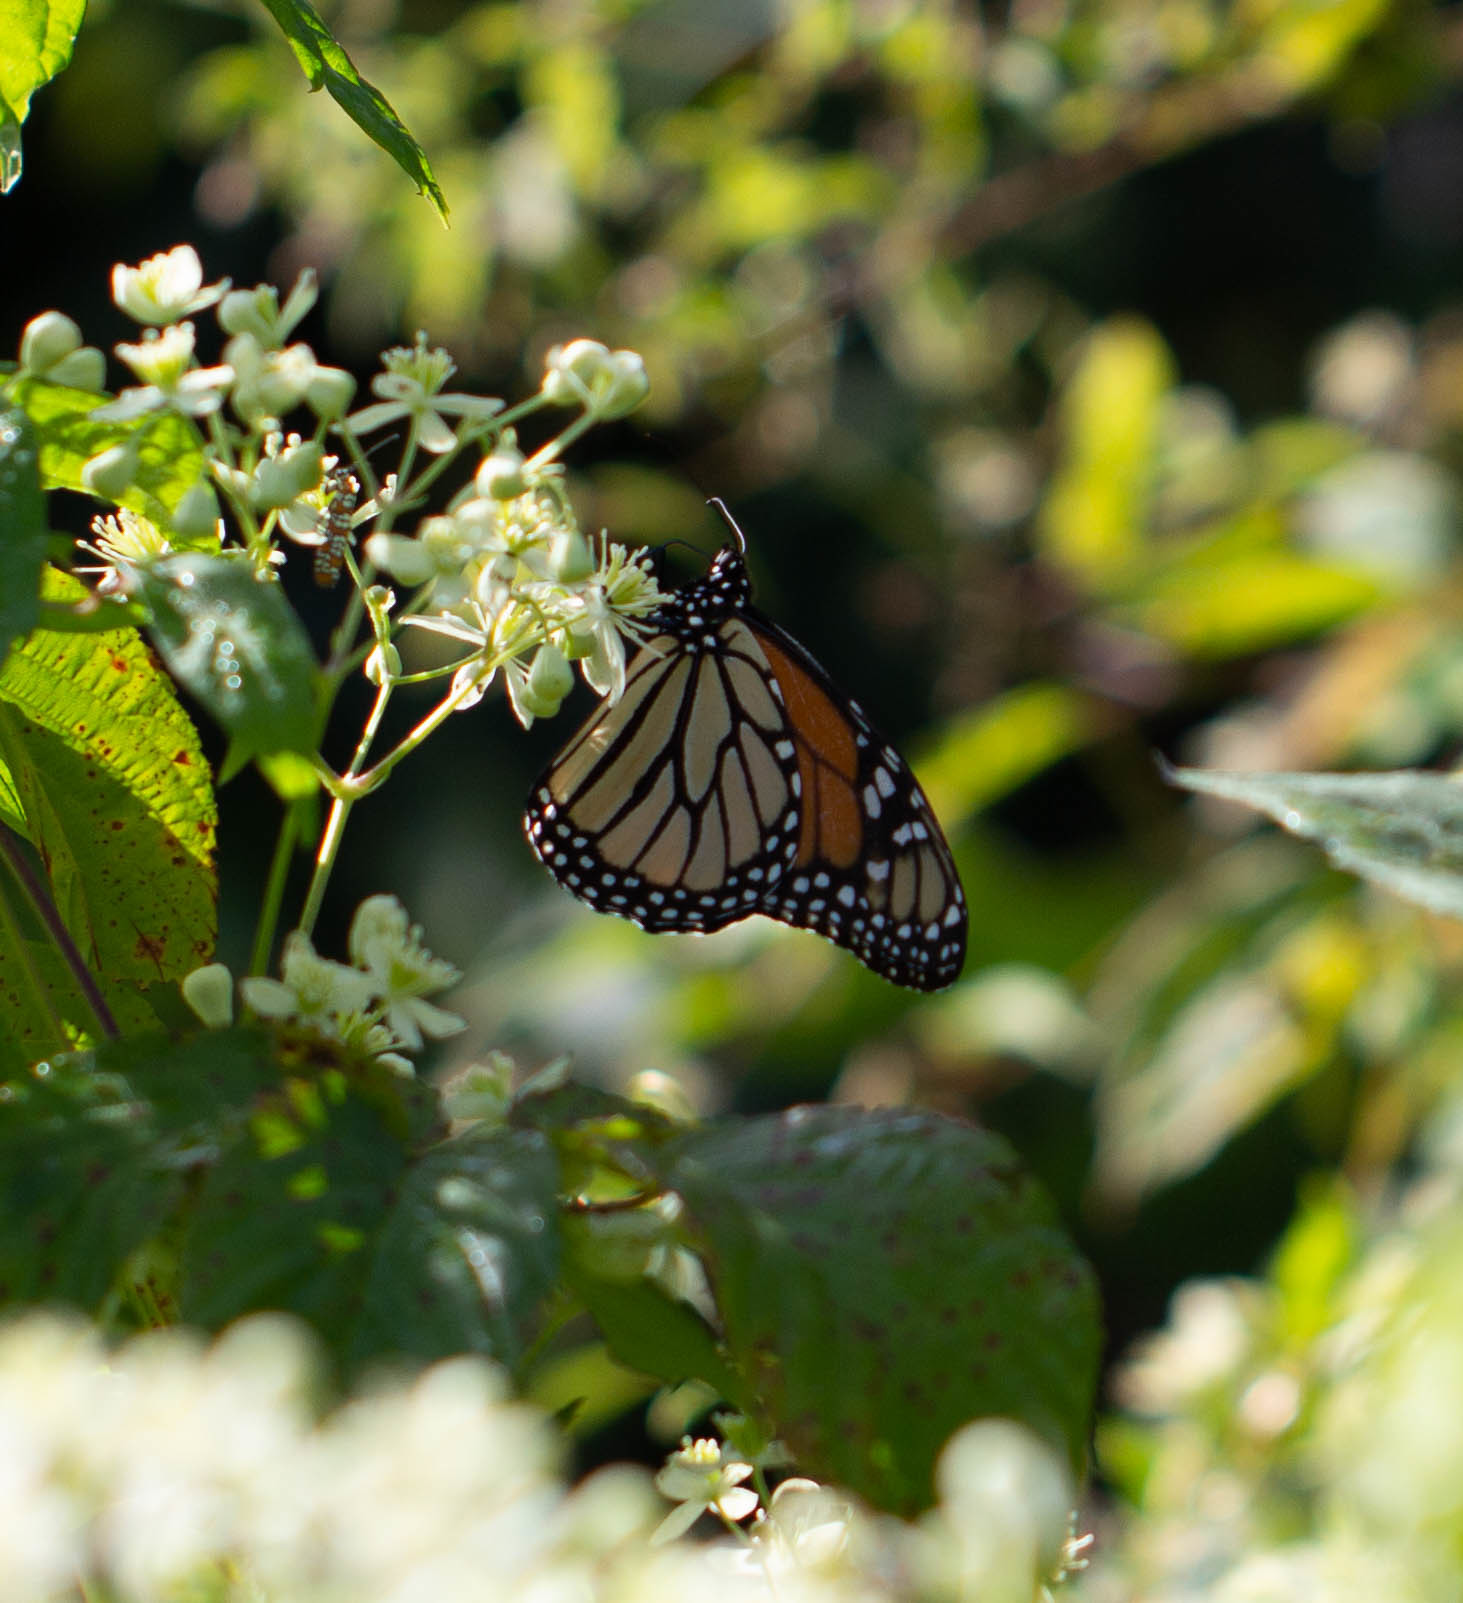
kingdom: Animalia
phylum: Arthropoda
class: Insecta
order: Lepidoptera
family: Nymphalidae
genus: Danaus
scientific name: Danaus plexippus
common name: Monarch
